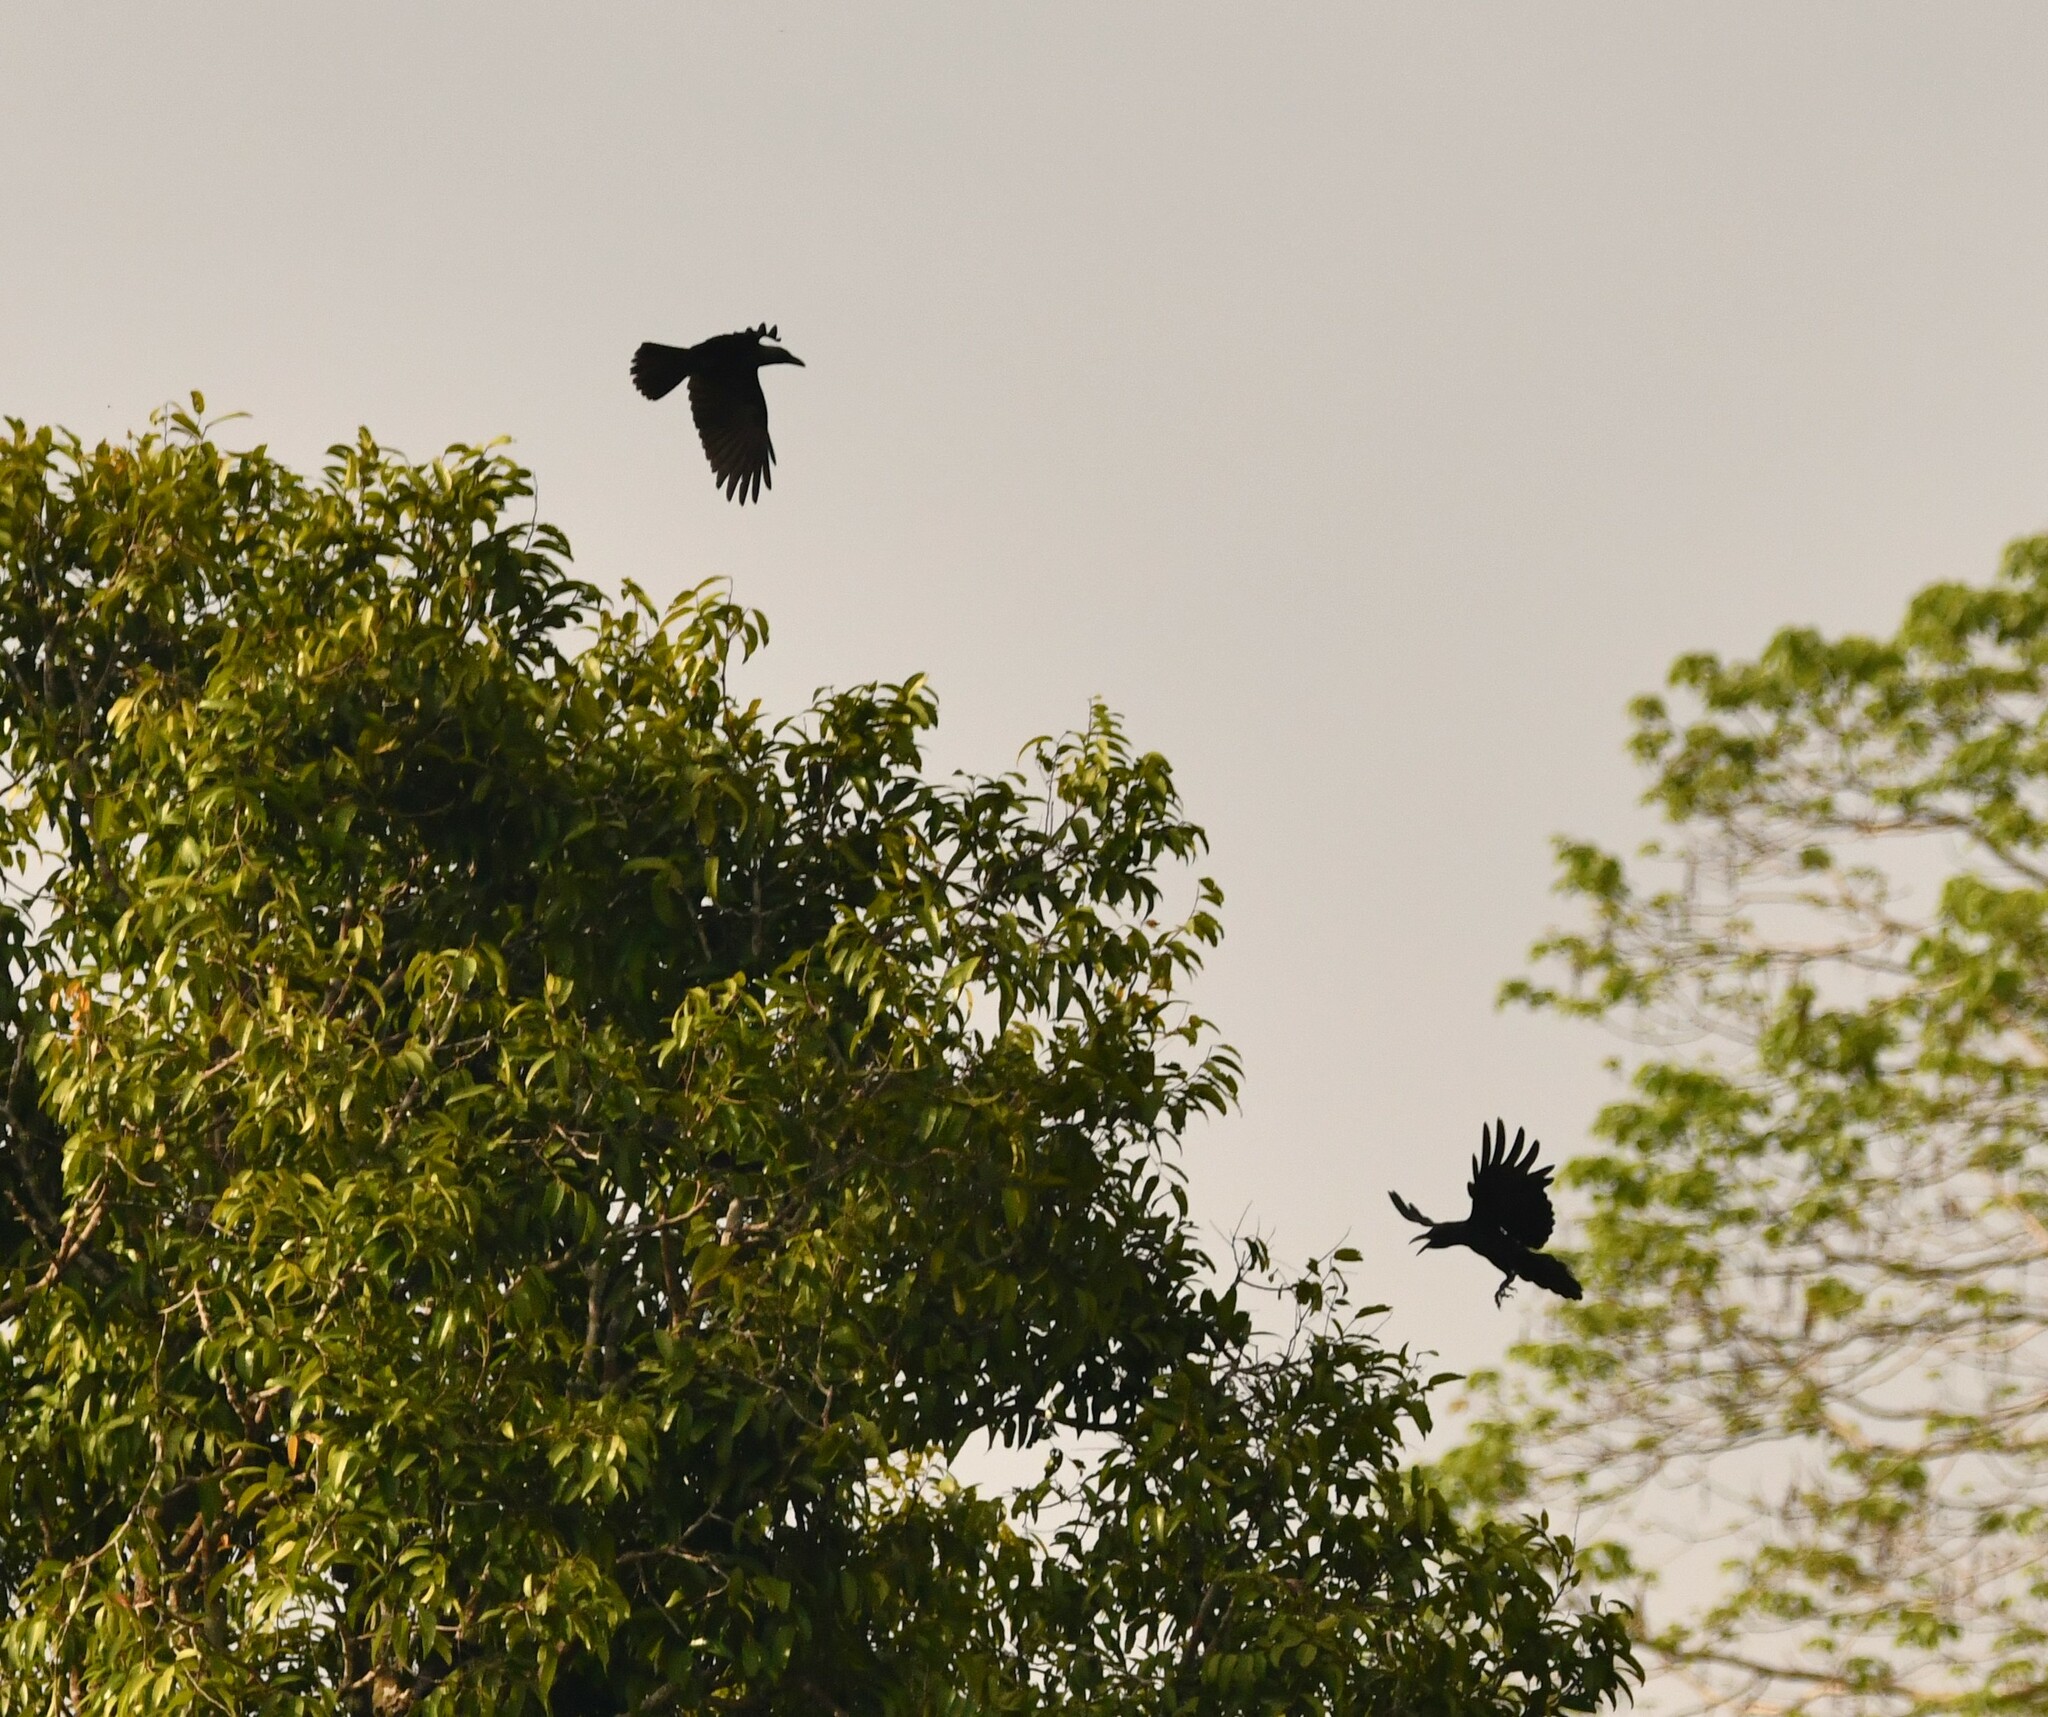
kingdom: Animalia
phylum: Chordata
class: Aves
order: Passeriformes
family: Corvidae
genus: Corvus
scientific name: Corvus macrorhynchos
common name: Large-billed crow
